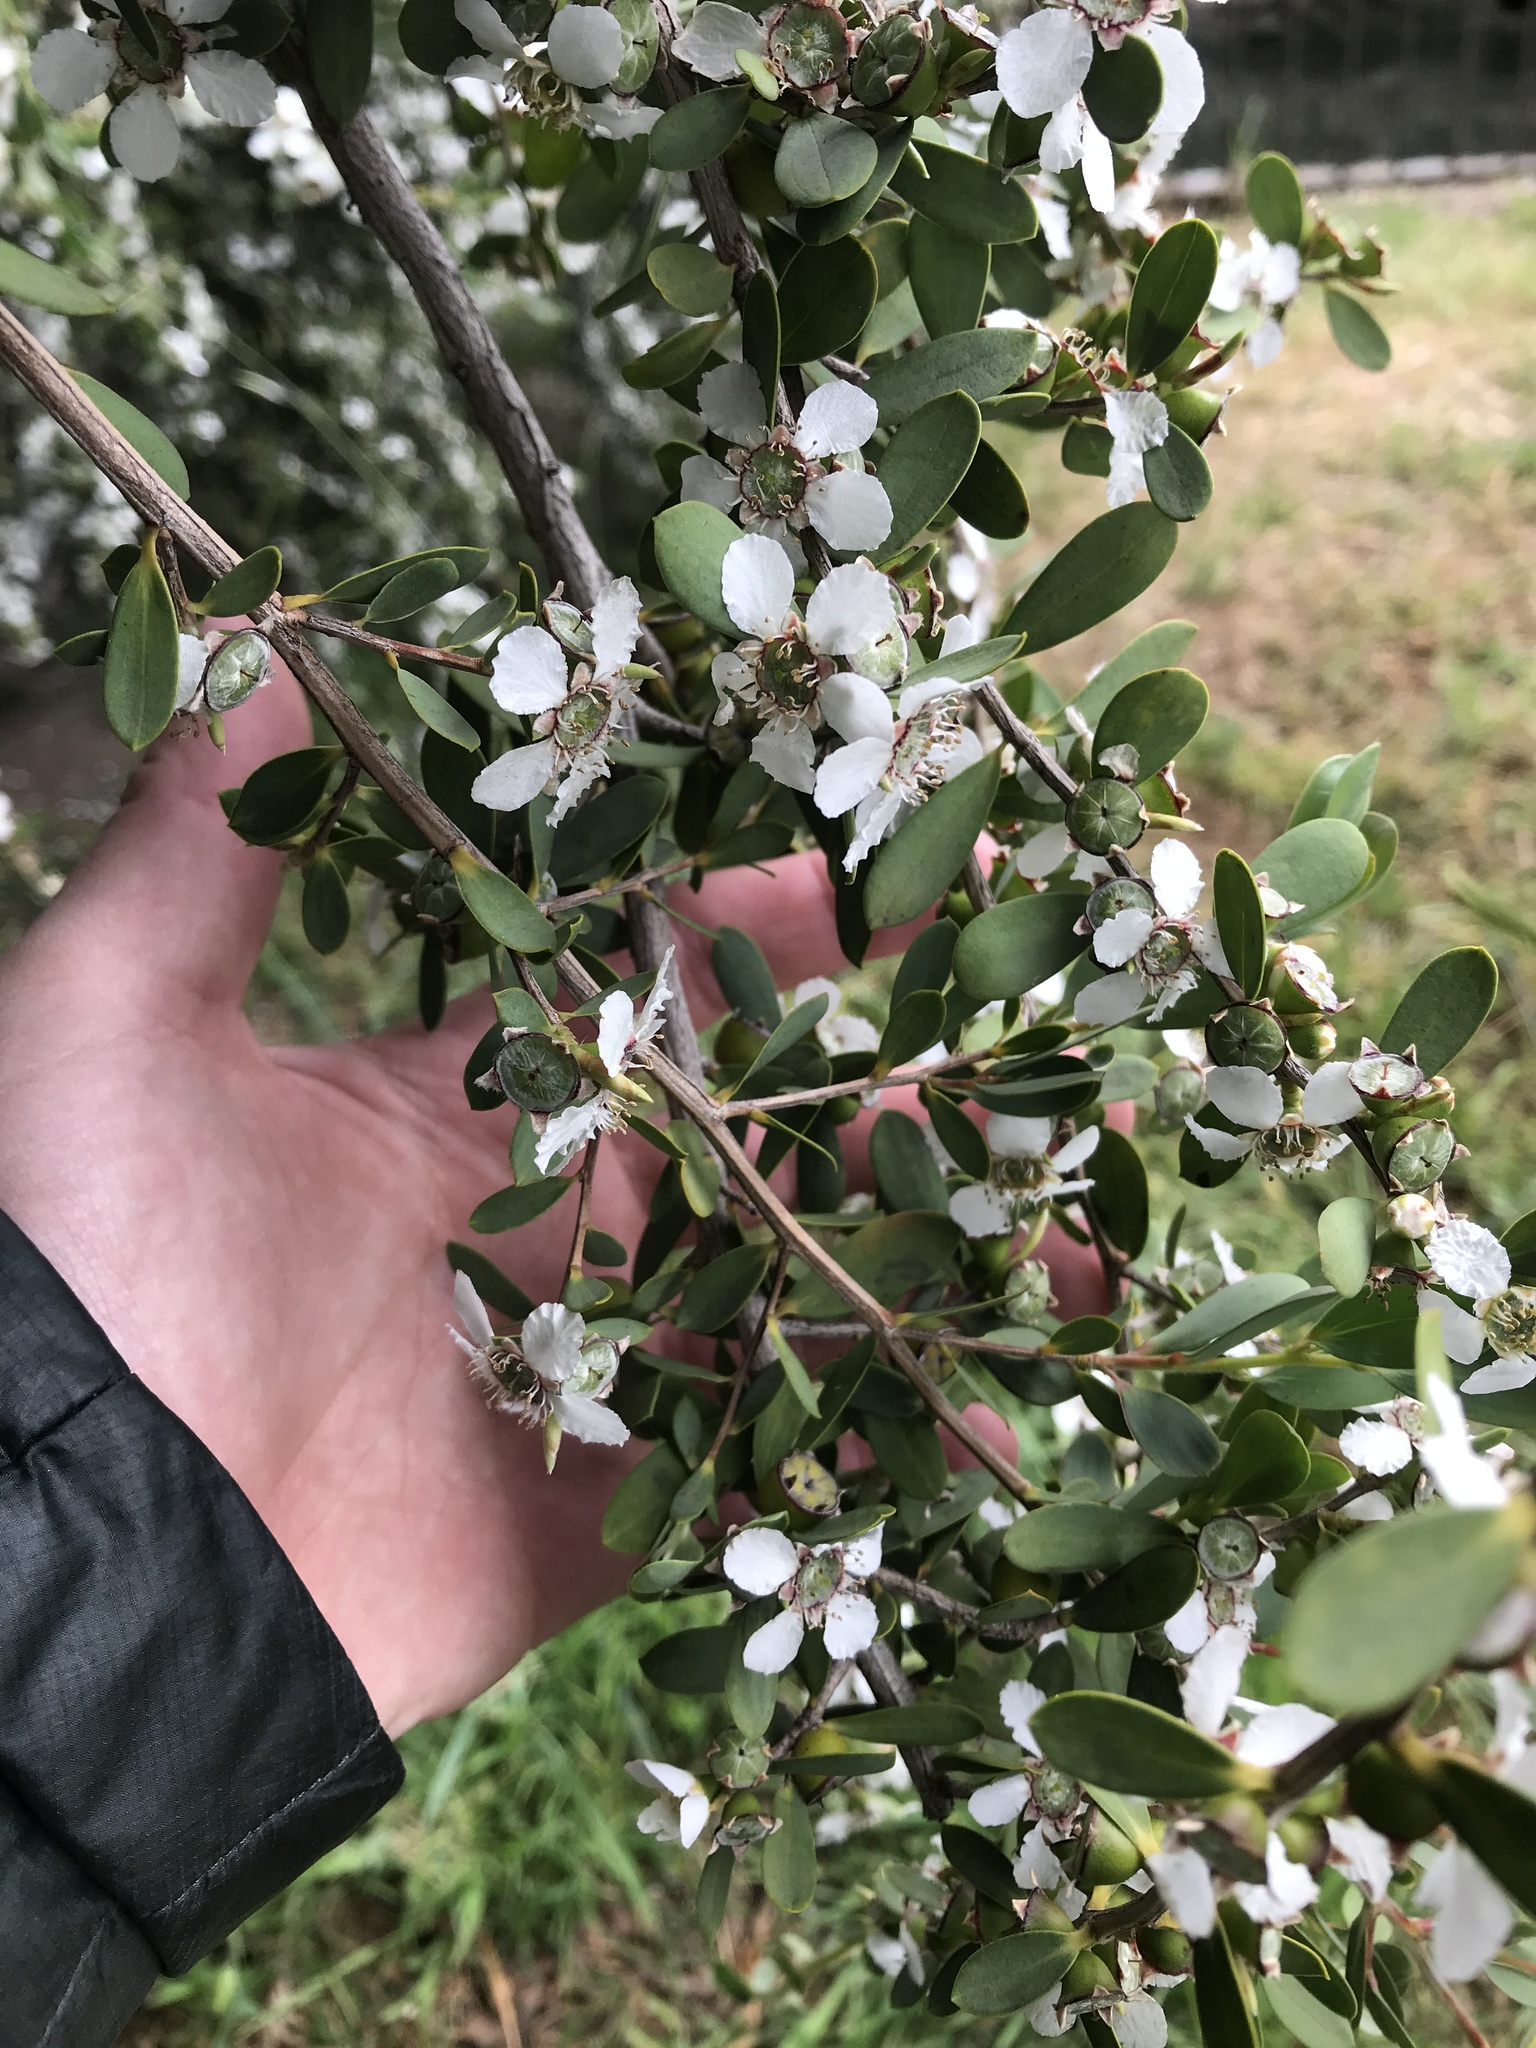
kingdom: Plantae
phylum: Tracheophyta
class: Magnoliopsida
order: Myrtales
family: Myrtaceae
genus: Leptospermum
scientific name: Leptospermum laevigatum
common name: Australian teatree
